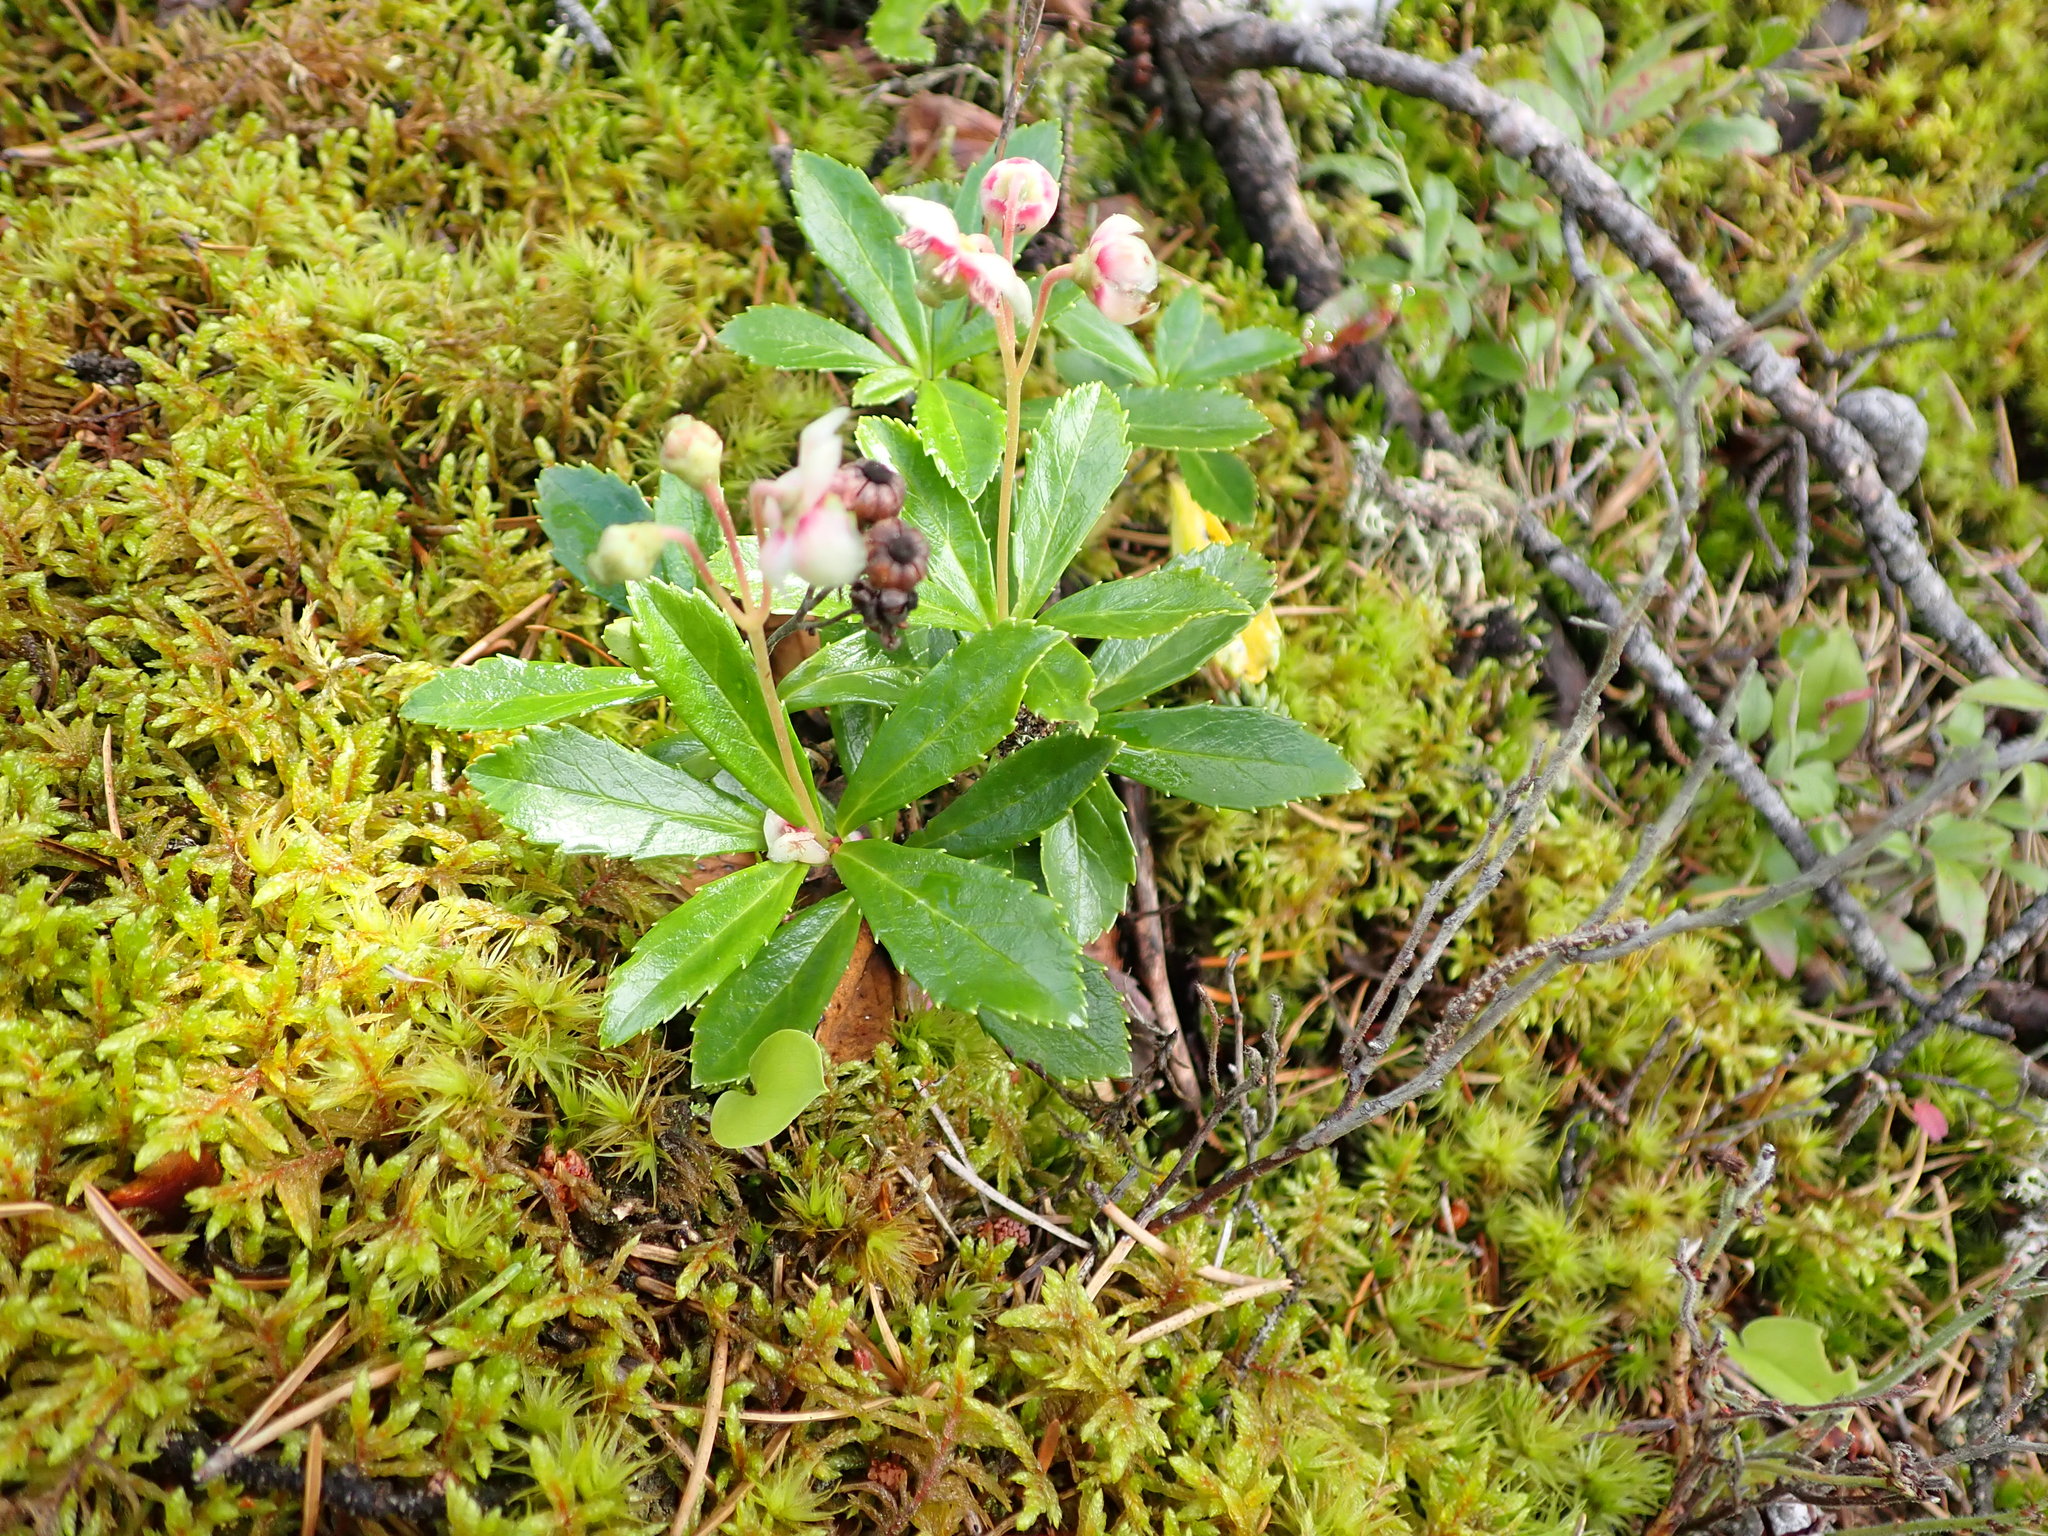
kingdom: Plantae
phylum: Tracheophyta
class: Magnoliopsida
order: Ericales
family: Ericaceae
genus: Chimaphila
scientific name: Chimaphila umbellata
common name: Pipsissewa
